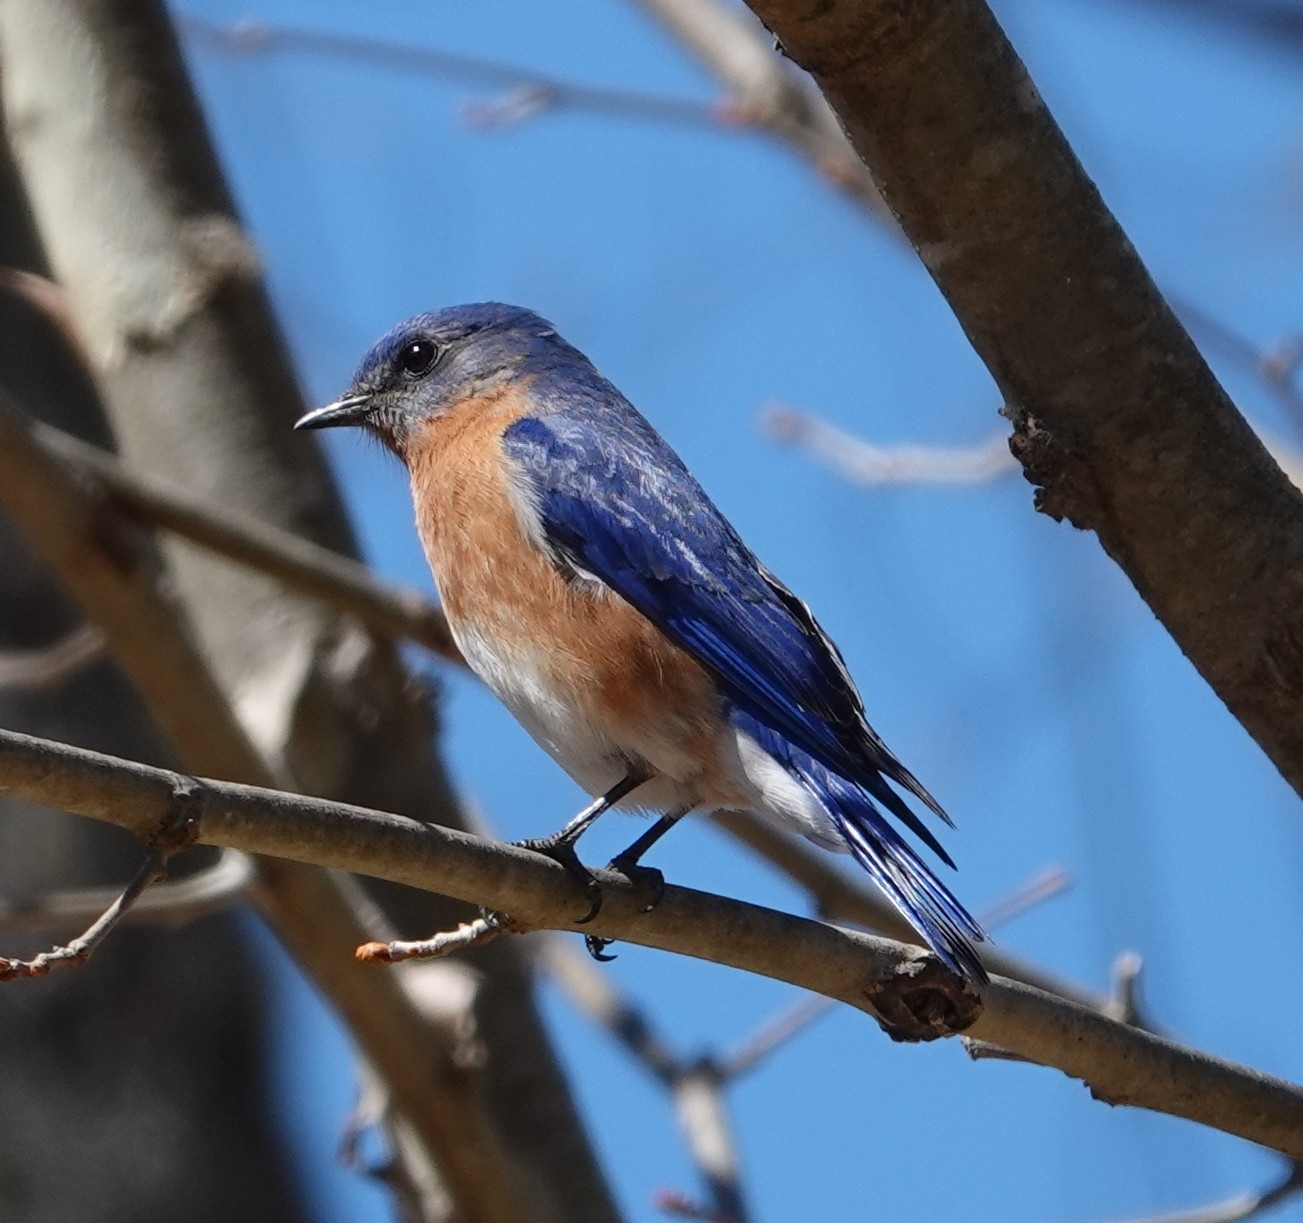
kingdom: Animalia
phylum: Chordata
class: Aves
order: Passeriformes
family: Turdidae
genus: Sialia
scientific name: Sialia sialis
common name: Eastern bluebird
